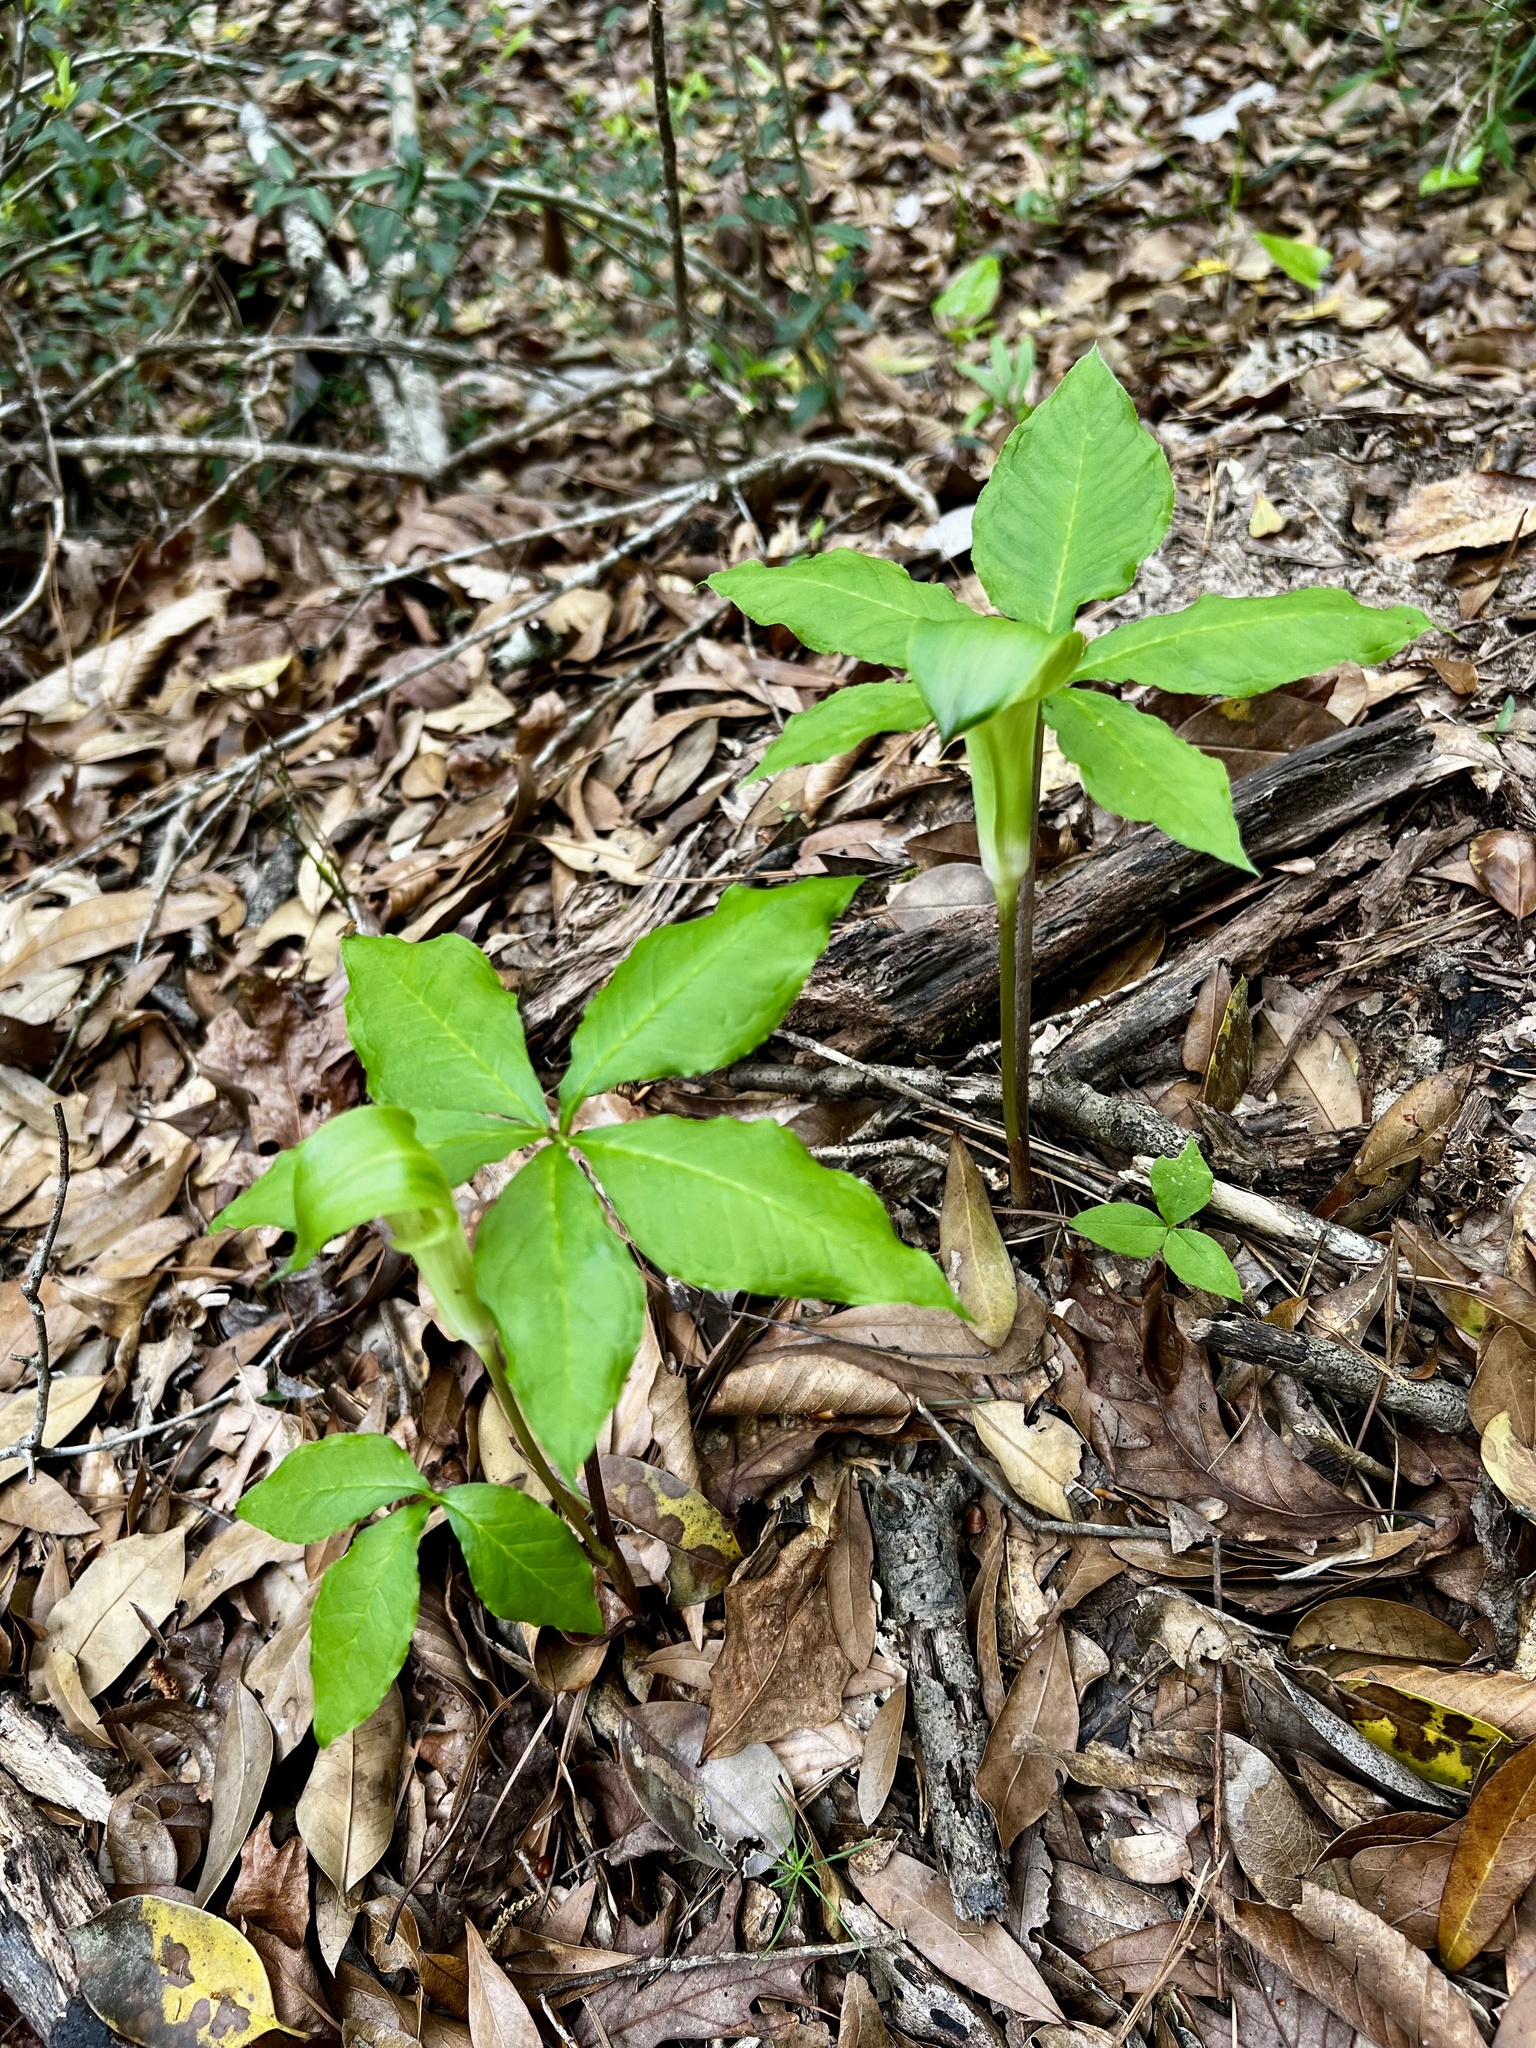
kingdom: Plantae
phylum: Tracheophyta
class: Liliopsida
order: Alismatales
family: Araceae
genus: Arisaema
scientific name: Arisaema quinatum
